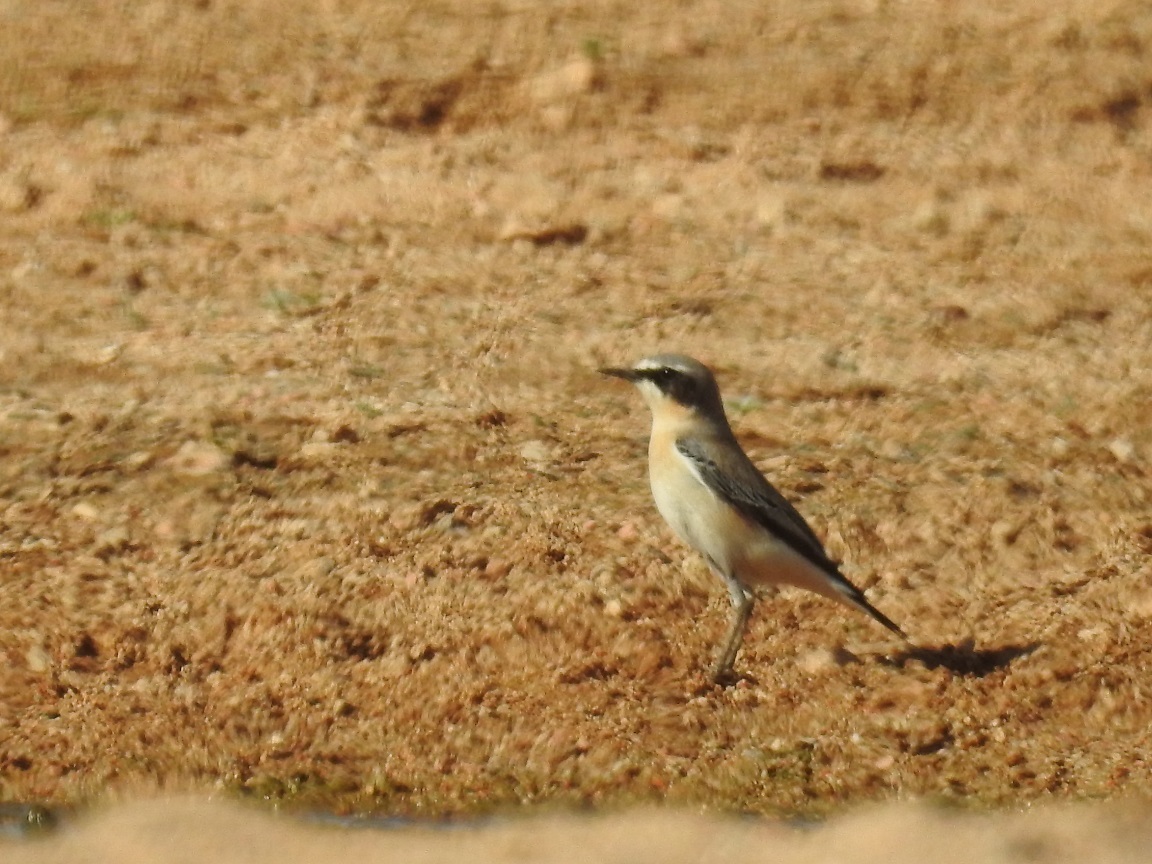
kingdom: Animalia
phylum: Chordata
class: Aves
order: Passeriformes
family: Muscicapidae
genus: Oenanthe
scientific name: Oenanthe oenanthe
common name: Northern wheatear
